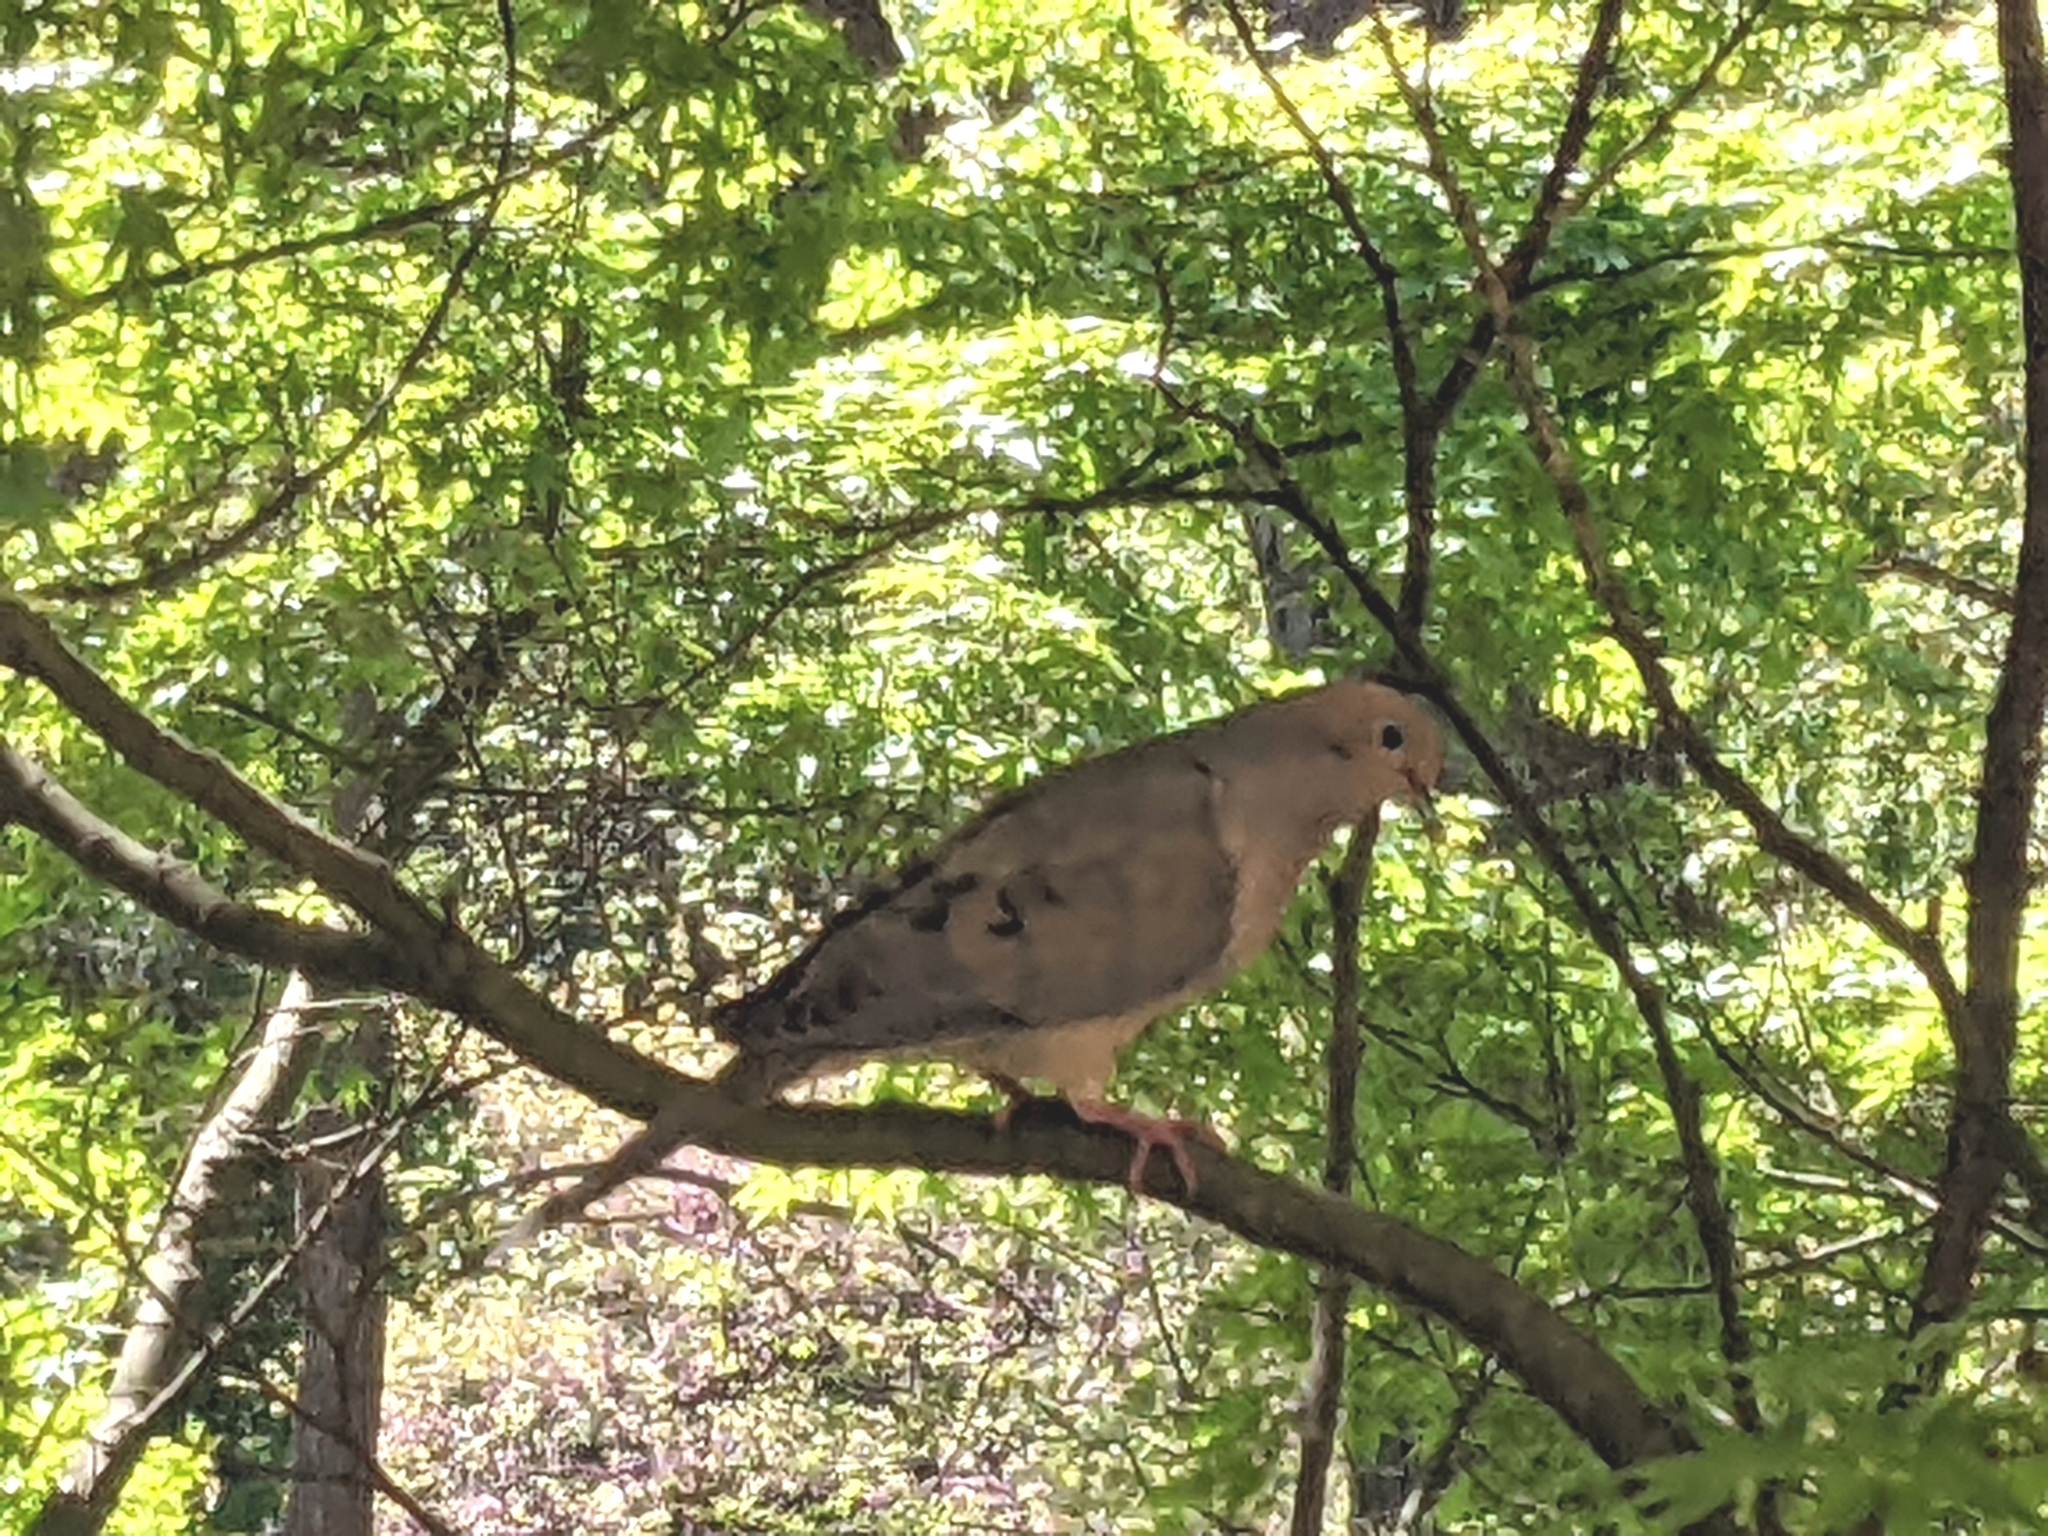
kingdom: Animalia
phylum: Chordata
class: Aves
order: Columbiformes
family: Columbidae
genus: Zenaida
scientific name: Zenaida macroura
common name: Mourning dove
